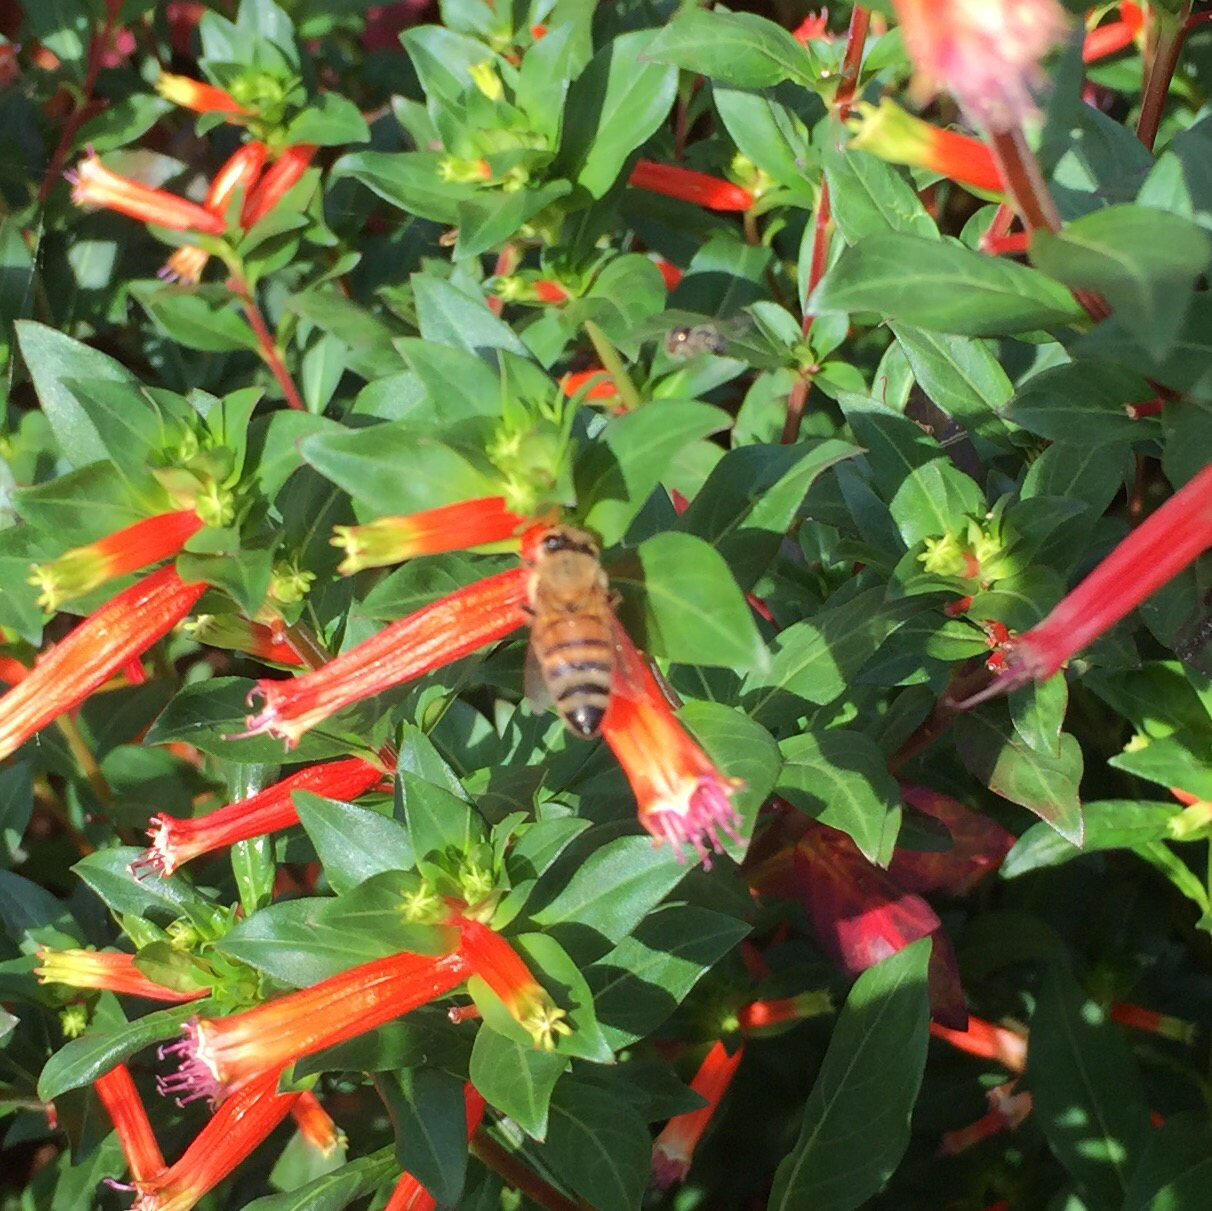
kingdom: Animalia
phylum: Arthropoda
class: Insecta
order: Hymenoptera
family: Apidae
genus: Apis
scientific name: Apis mellifera
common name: Honey bee
